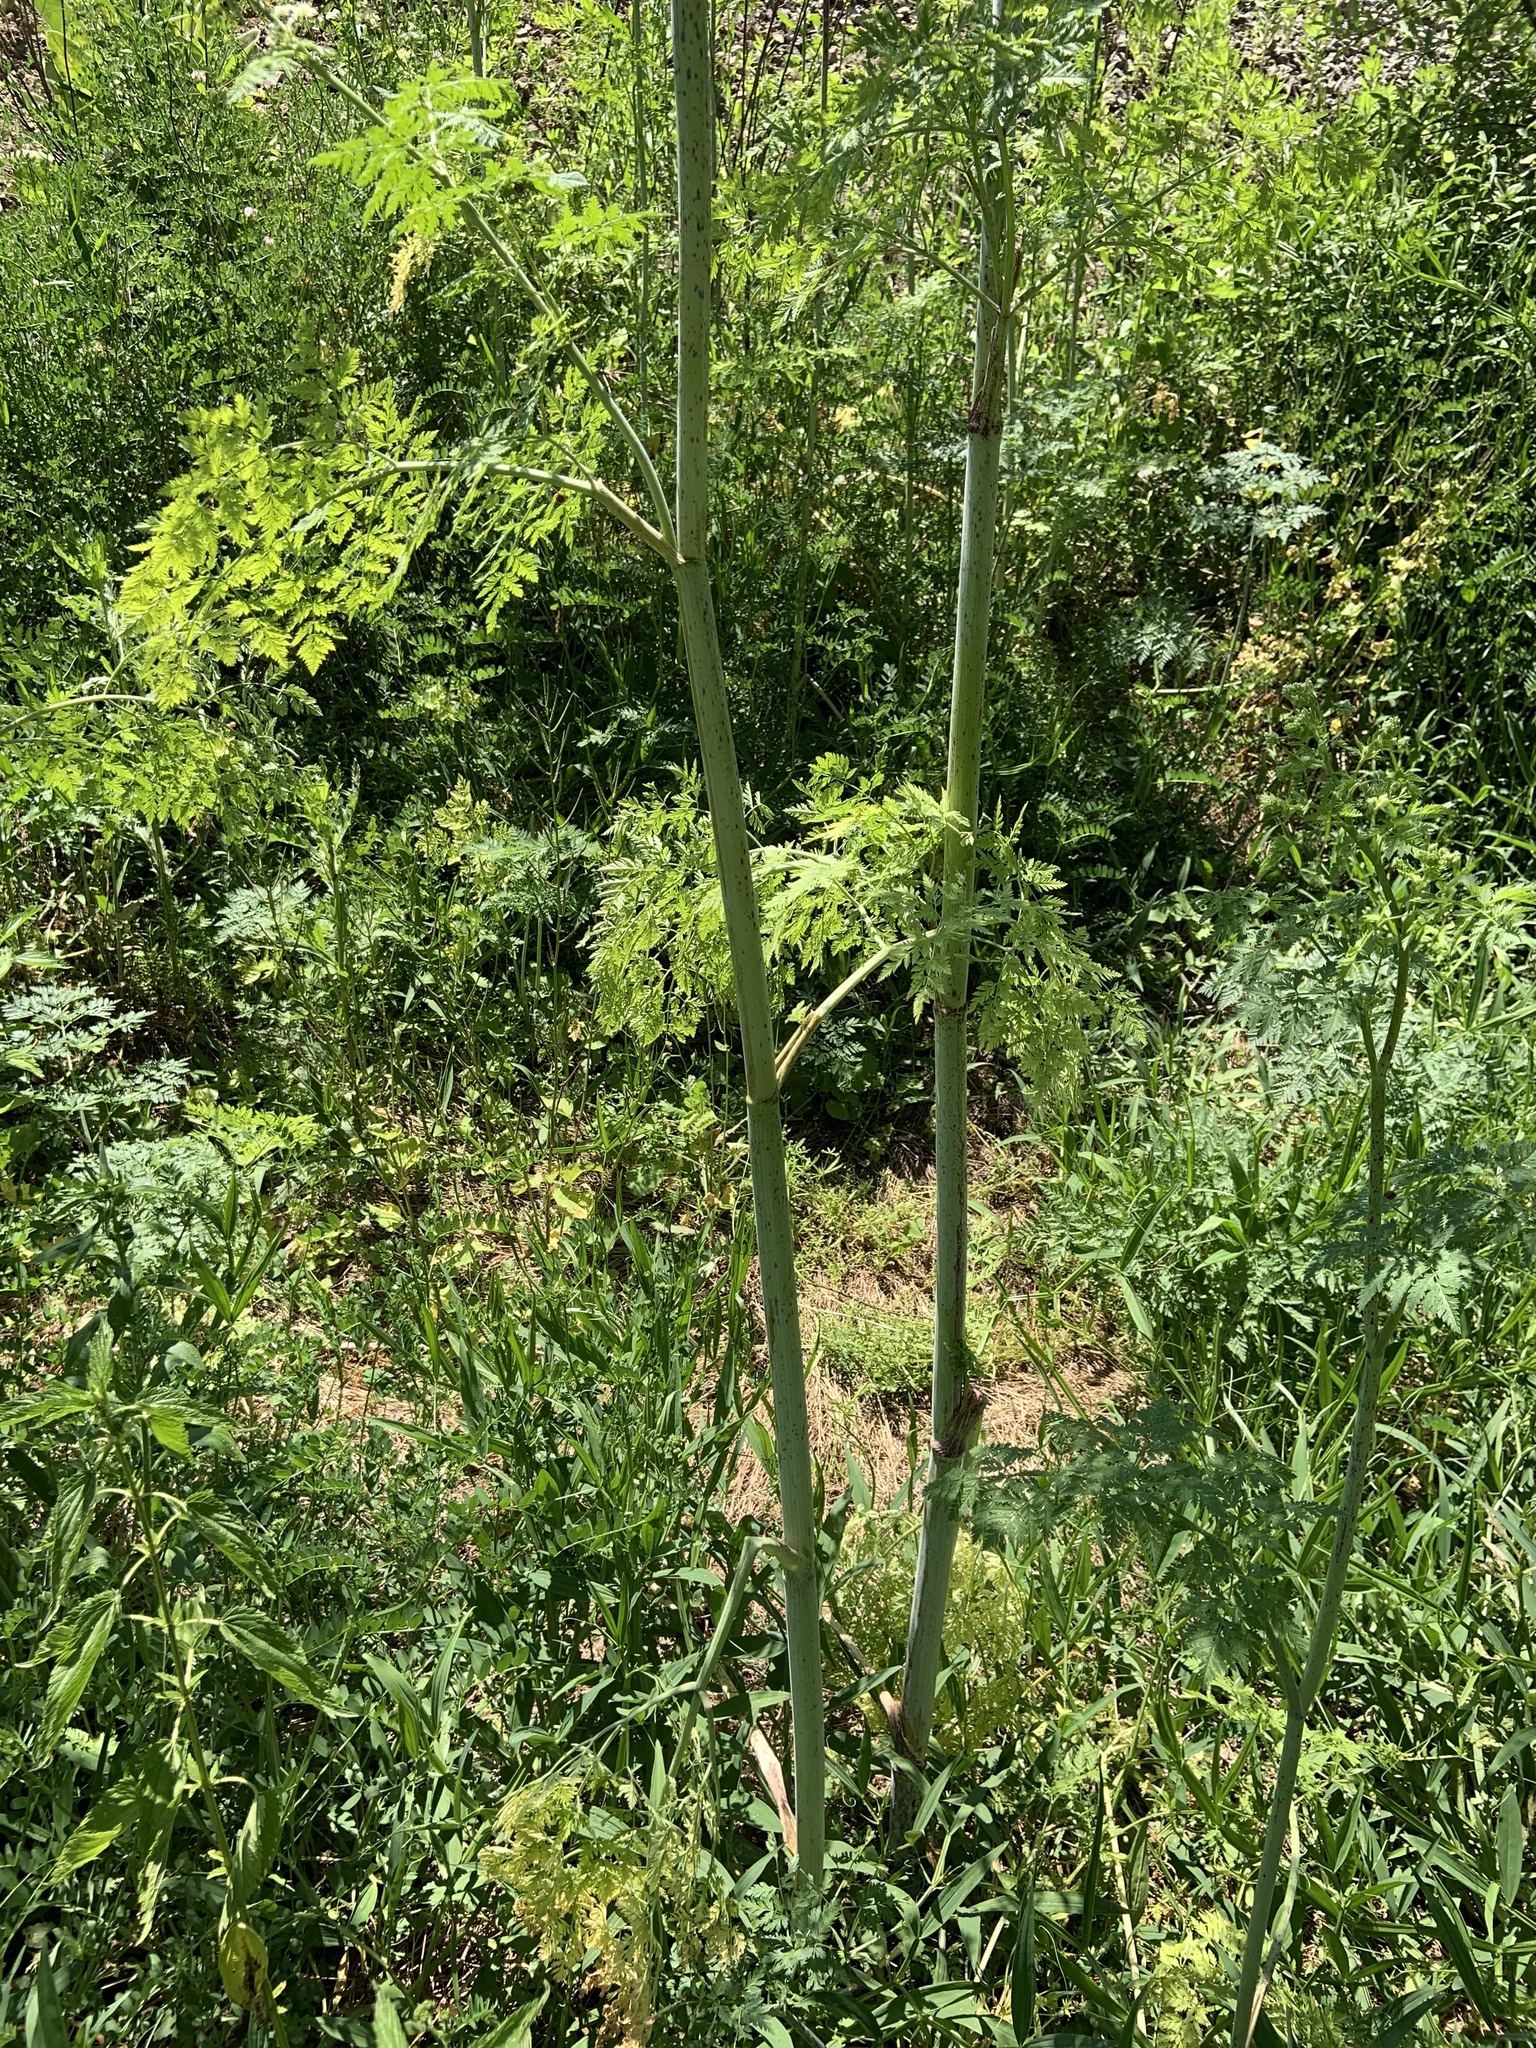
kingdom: Plantae
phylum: Tracheophyta
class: Magnoliopsida
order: Apiales
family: Apiaceae
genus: Conium
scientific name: Conium maculatum
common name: Hemlock
